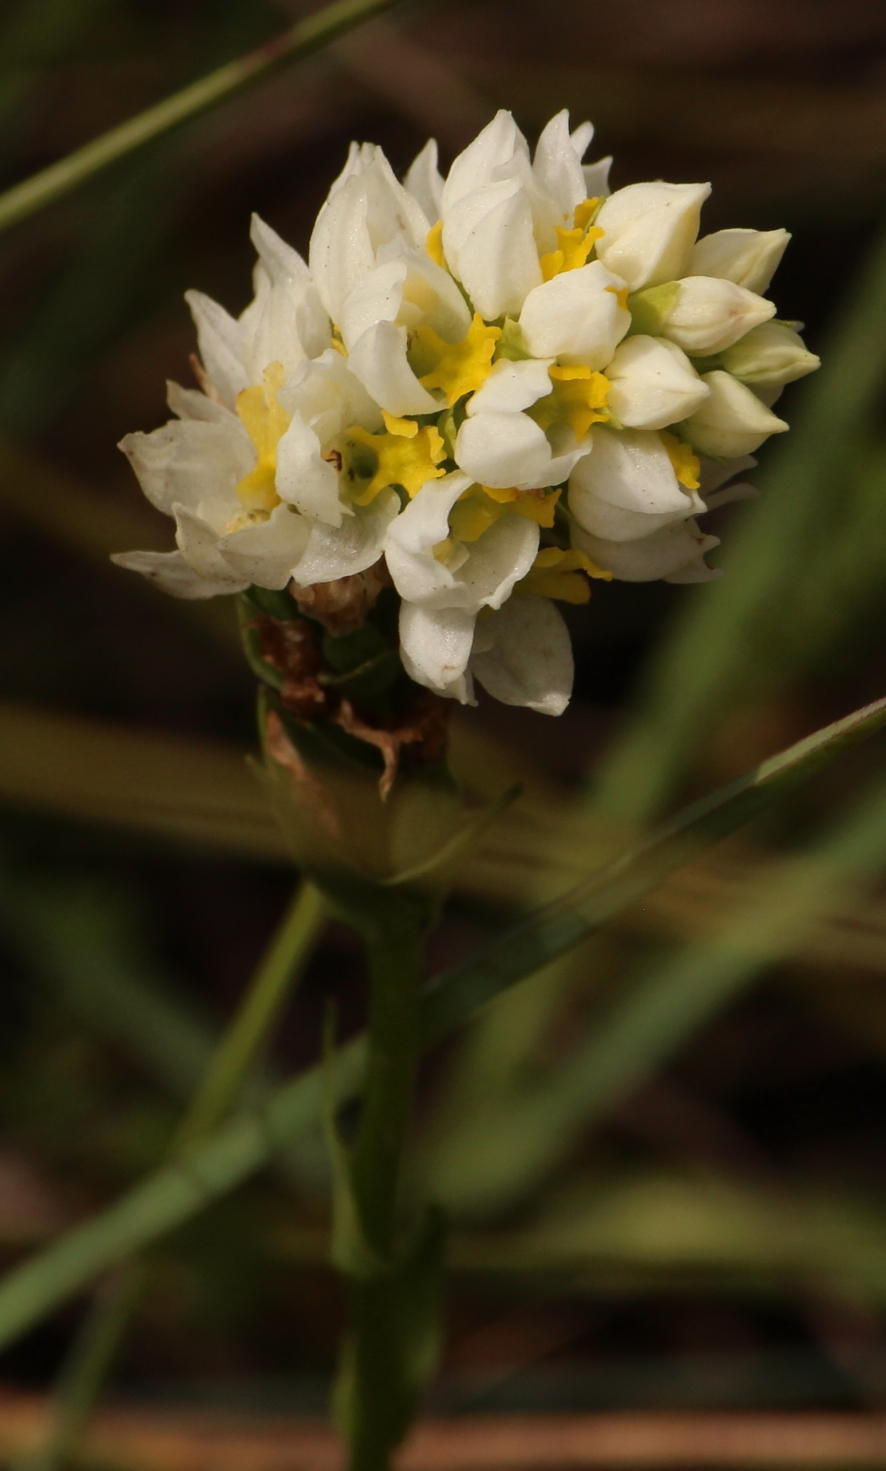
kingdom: Plantae
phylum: Tracheophyta
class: Liliopsida
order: Asparagales
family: Orchidaceae
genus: Schizochilus
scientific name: Schizochilus flexuosus
